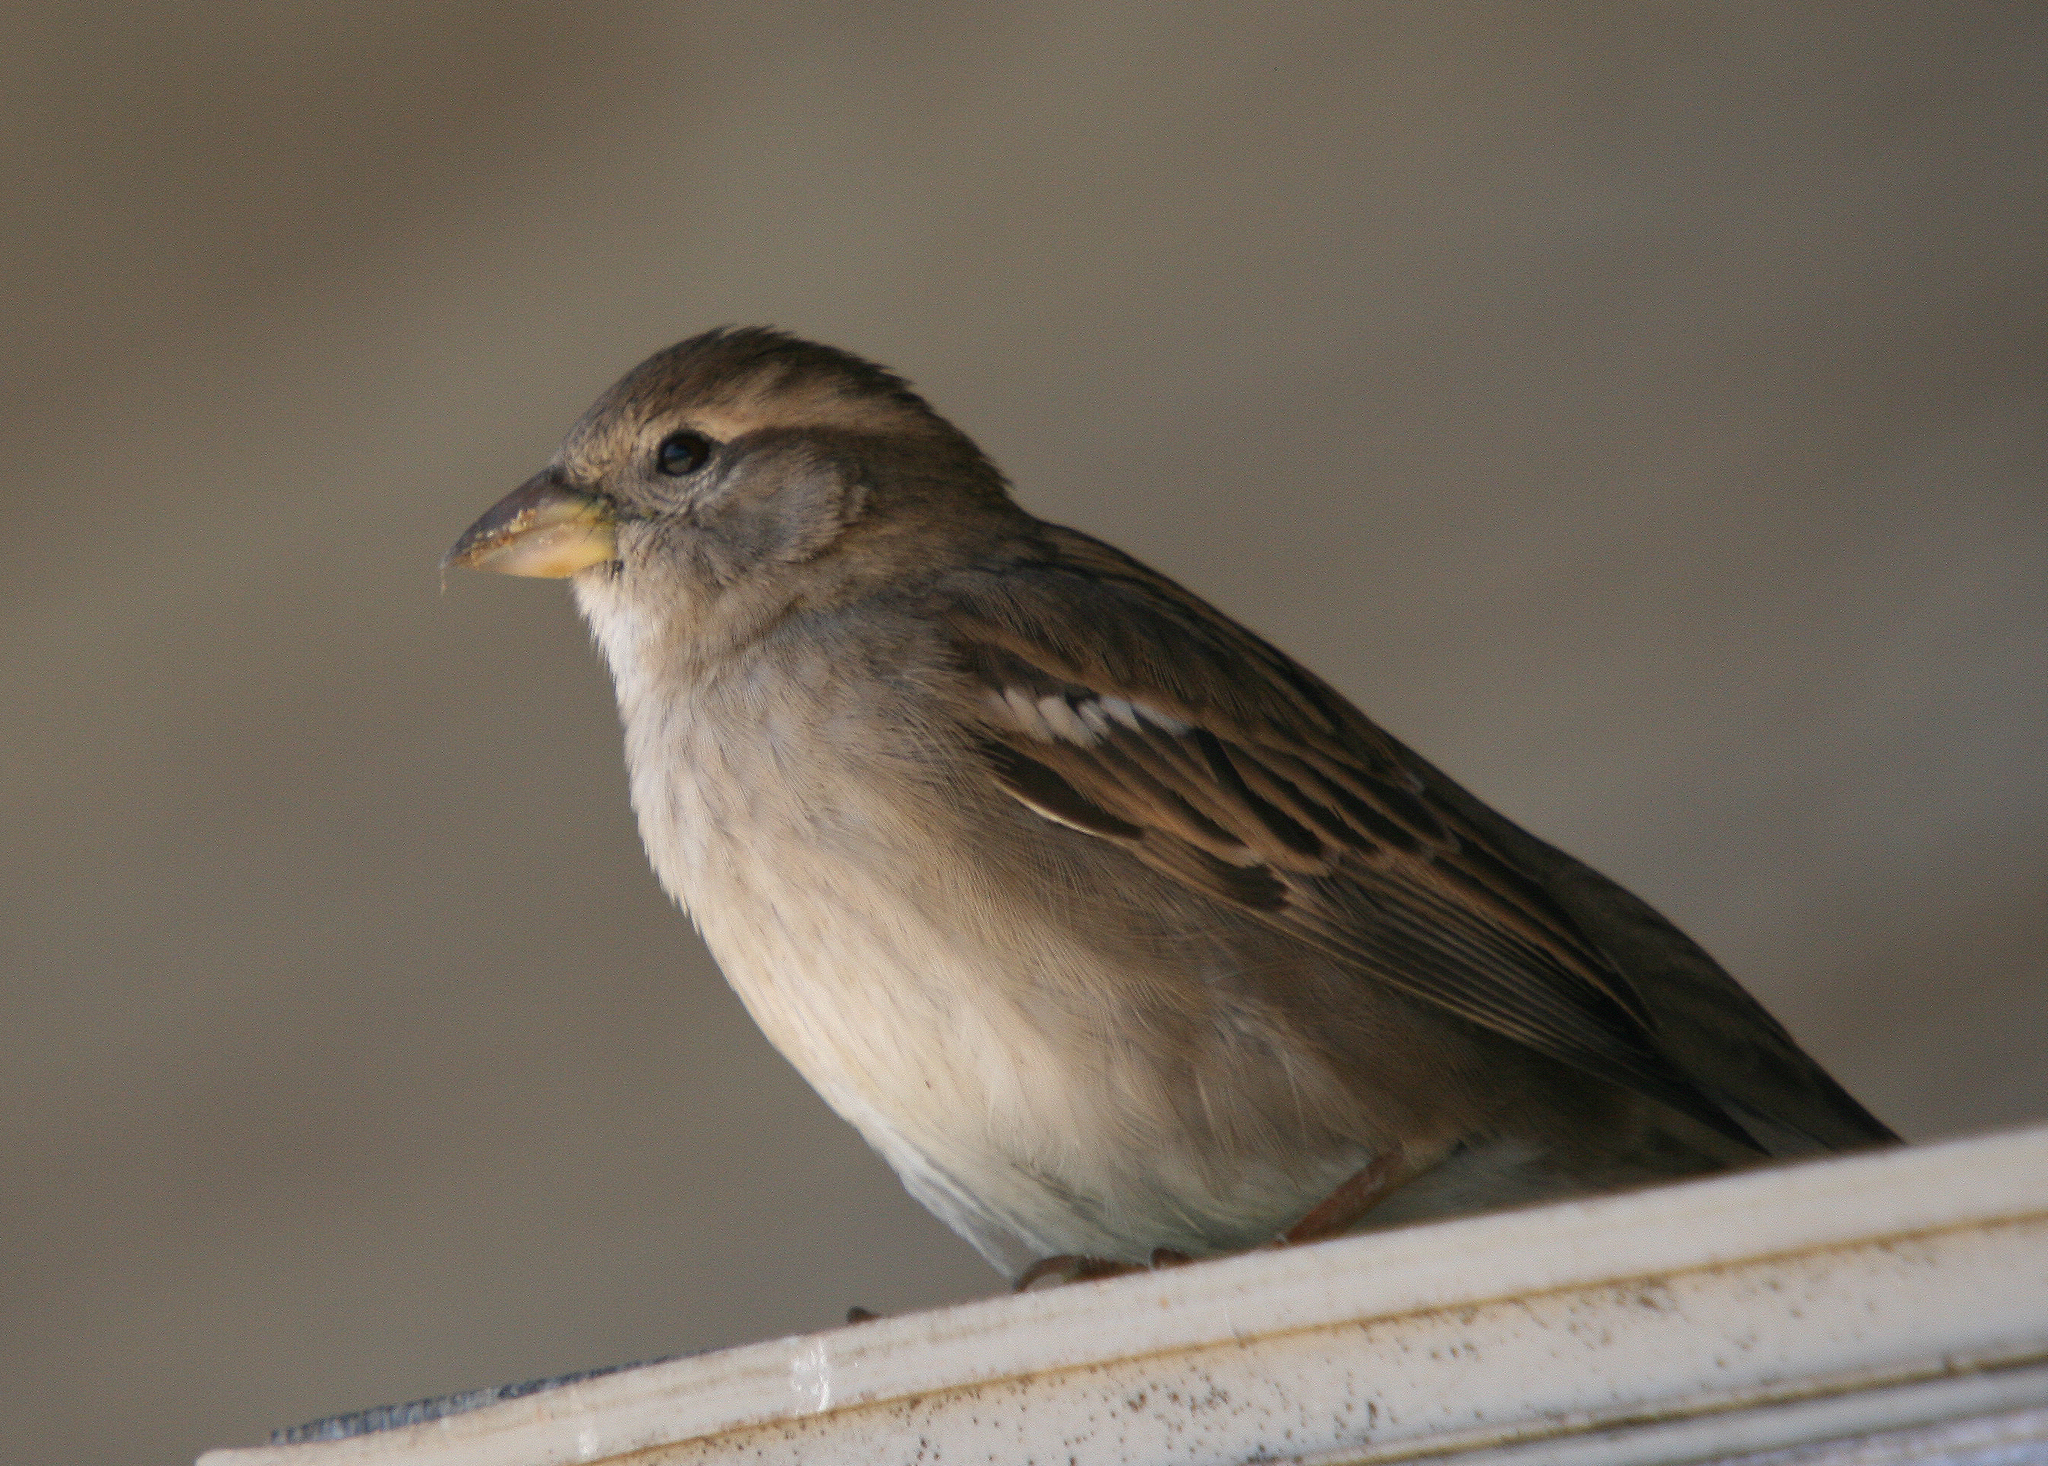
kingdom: Animalia
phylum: Chordata
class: Aves
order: Passeriformes
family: Passeridae
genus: Passer
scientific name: Passer domesticus
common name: House sparrow
